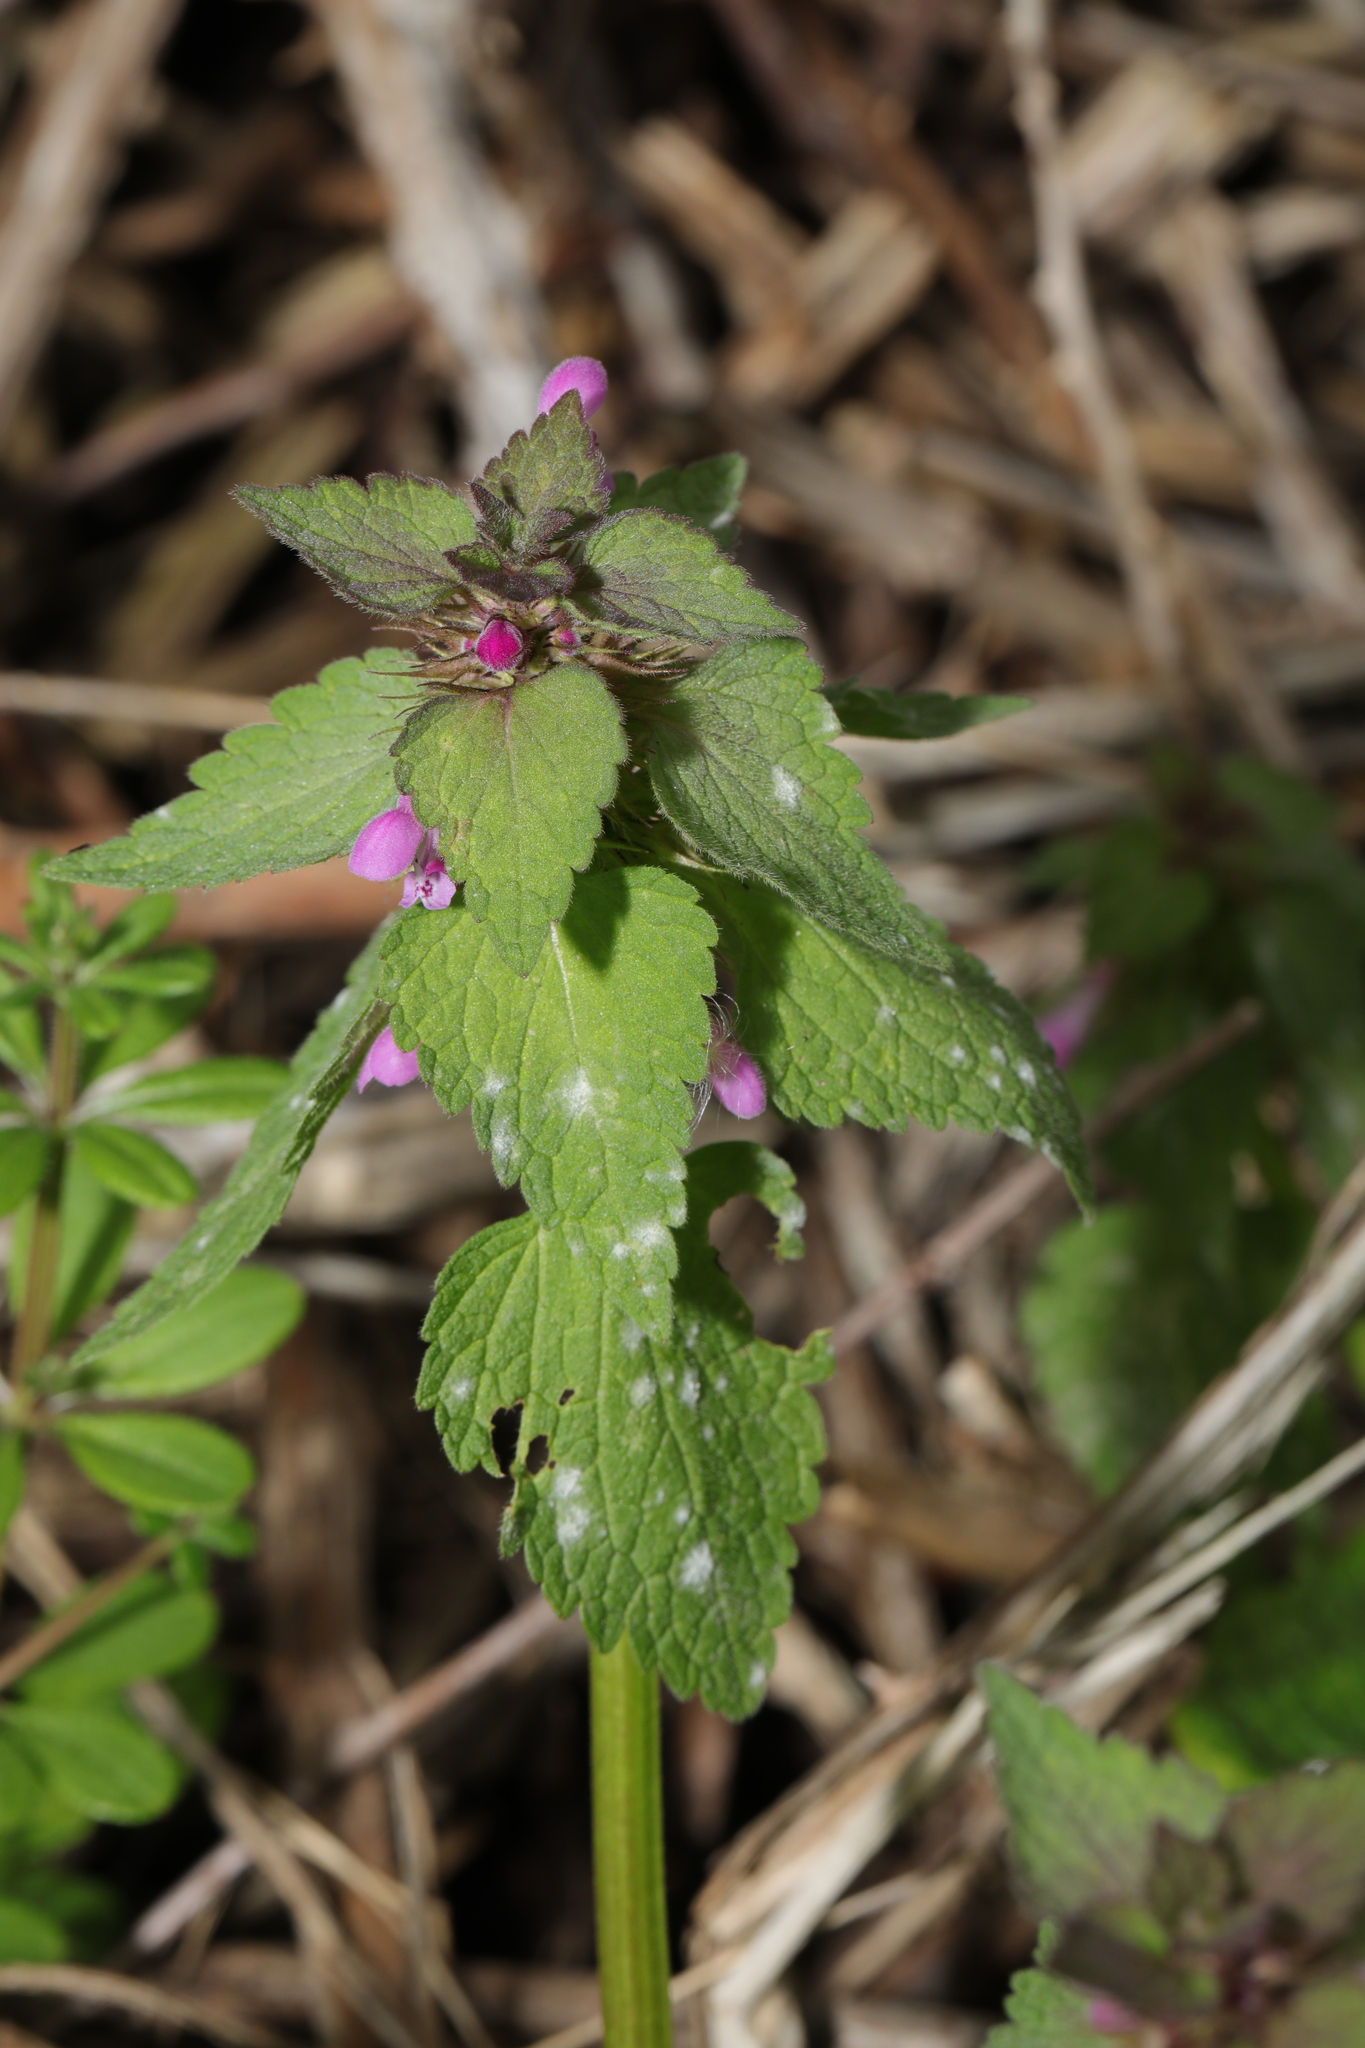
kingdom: Plantae
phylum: Tracheophyta
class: Magnoliopsida
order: Lamiales
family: Lamiaceae
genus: Lamium
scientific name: Lamium purpureum
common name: Red dead-nettle
